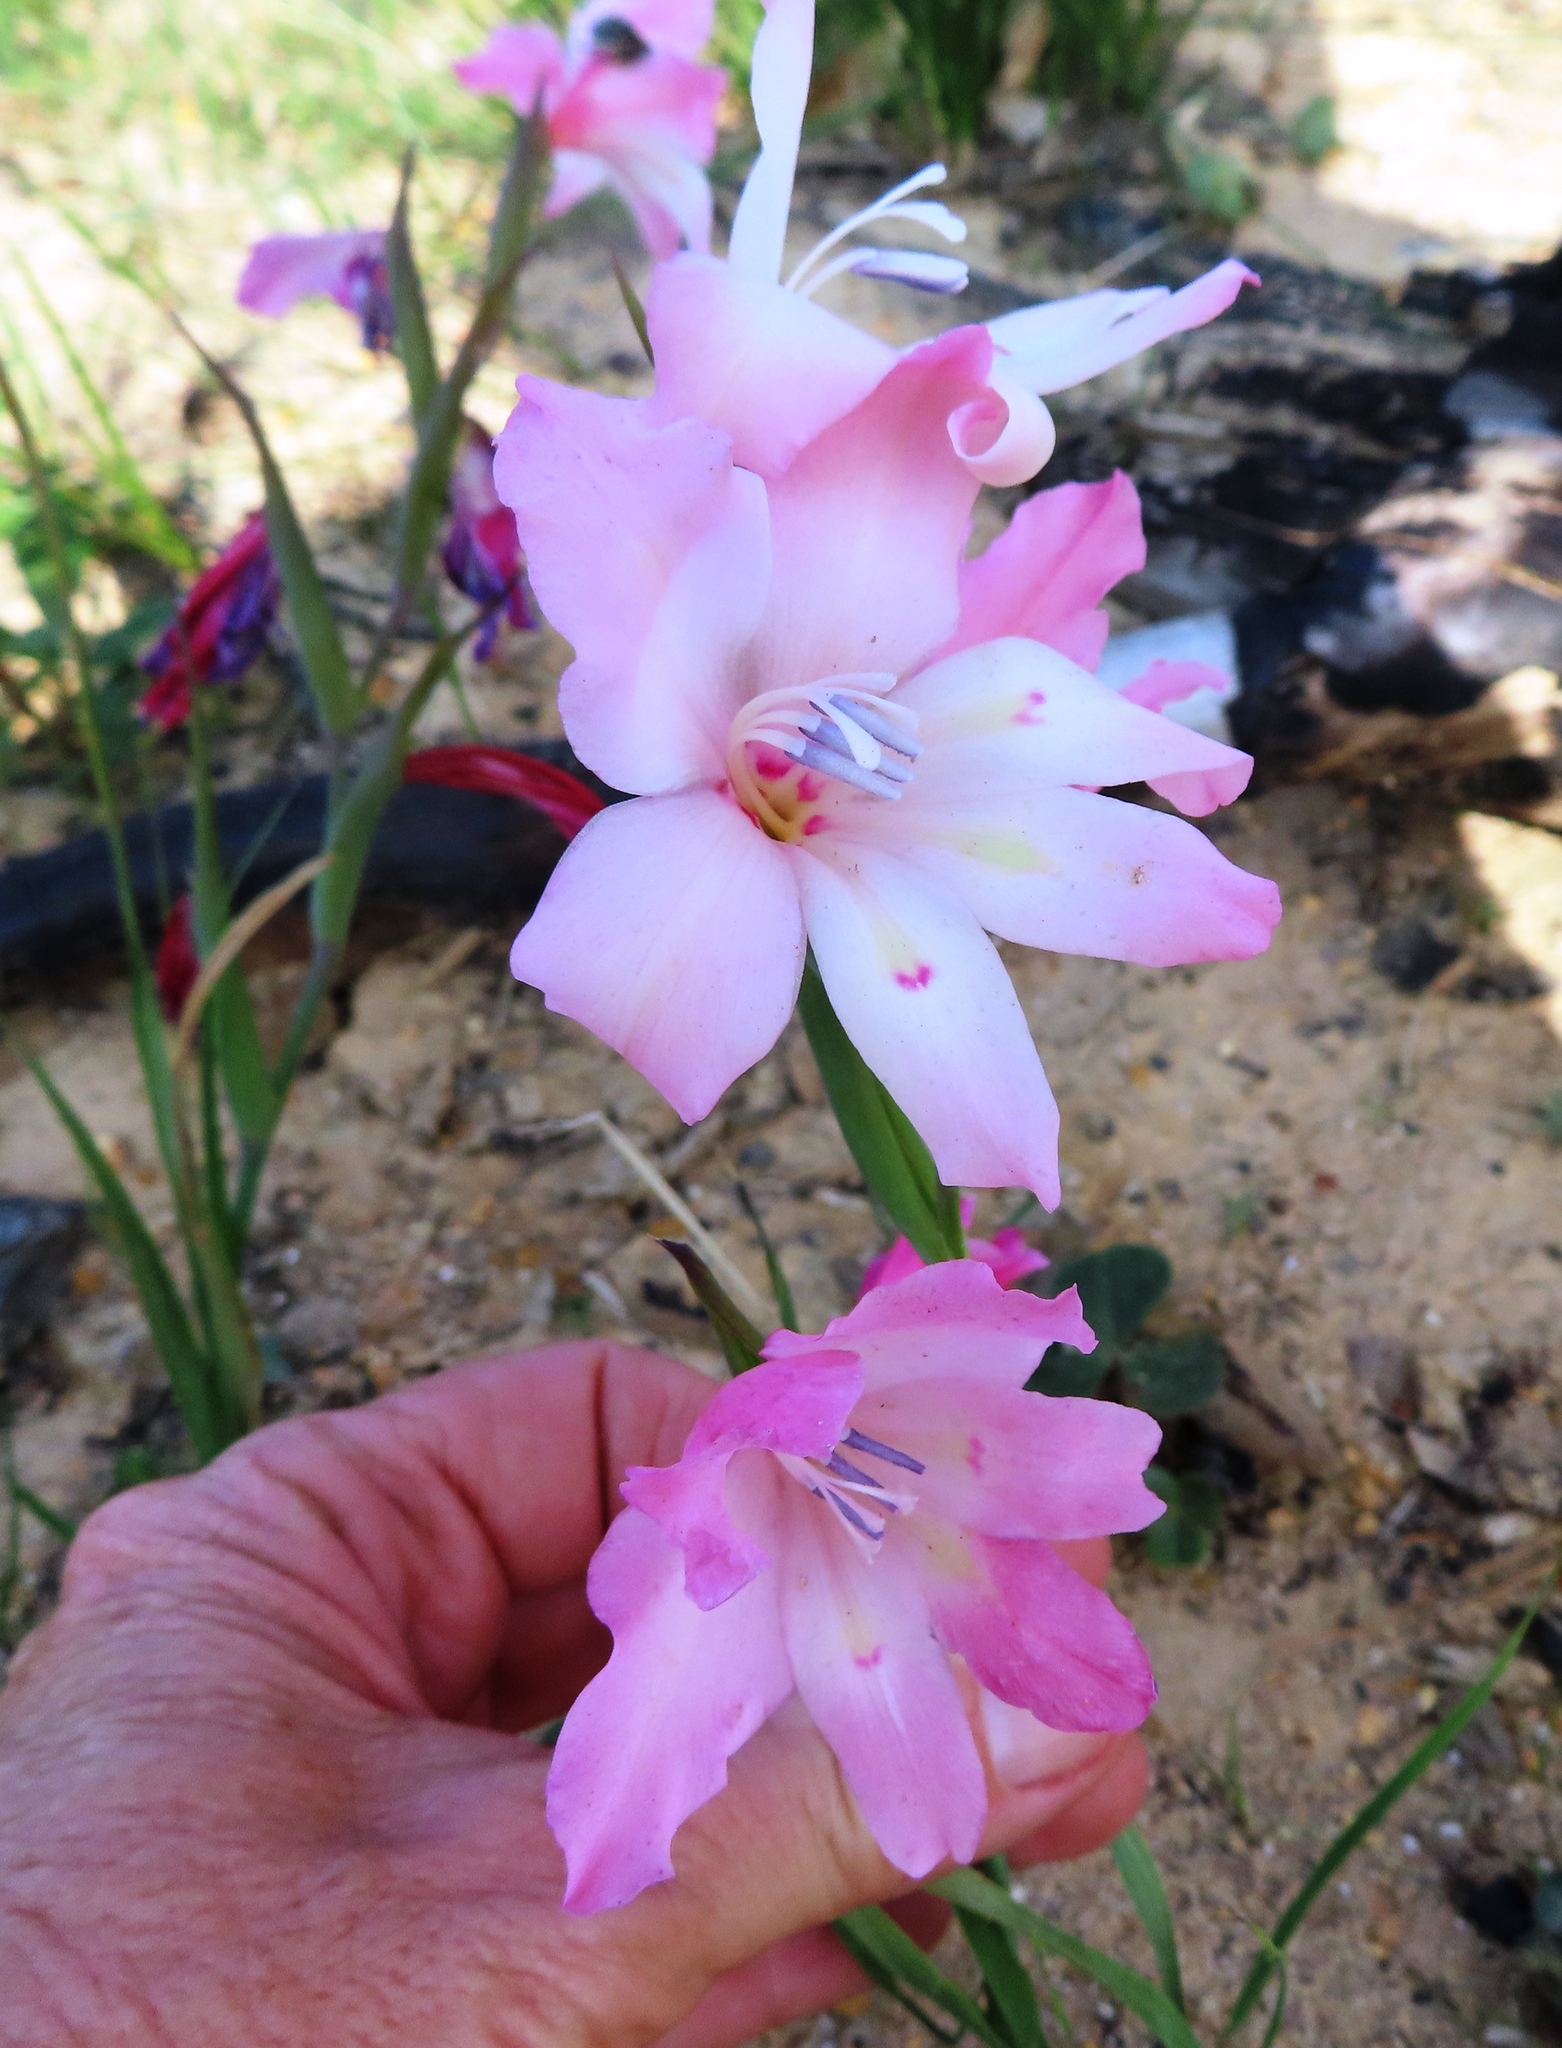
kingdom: Plantae
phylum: Tracheophyta
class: Liliopsida
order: Asparagales
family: Iridaceae
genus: Gladiolus
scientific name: Gladiolus carneus
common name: Painted-lady
